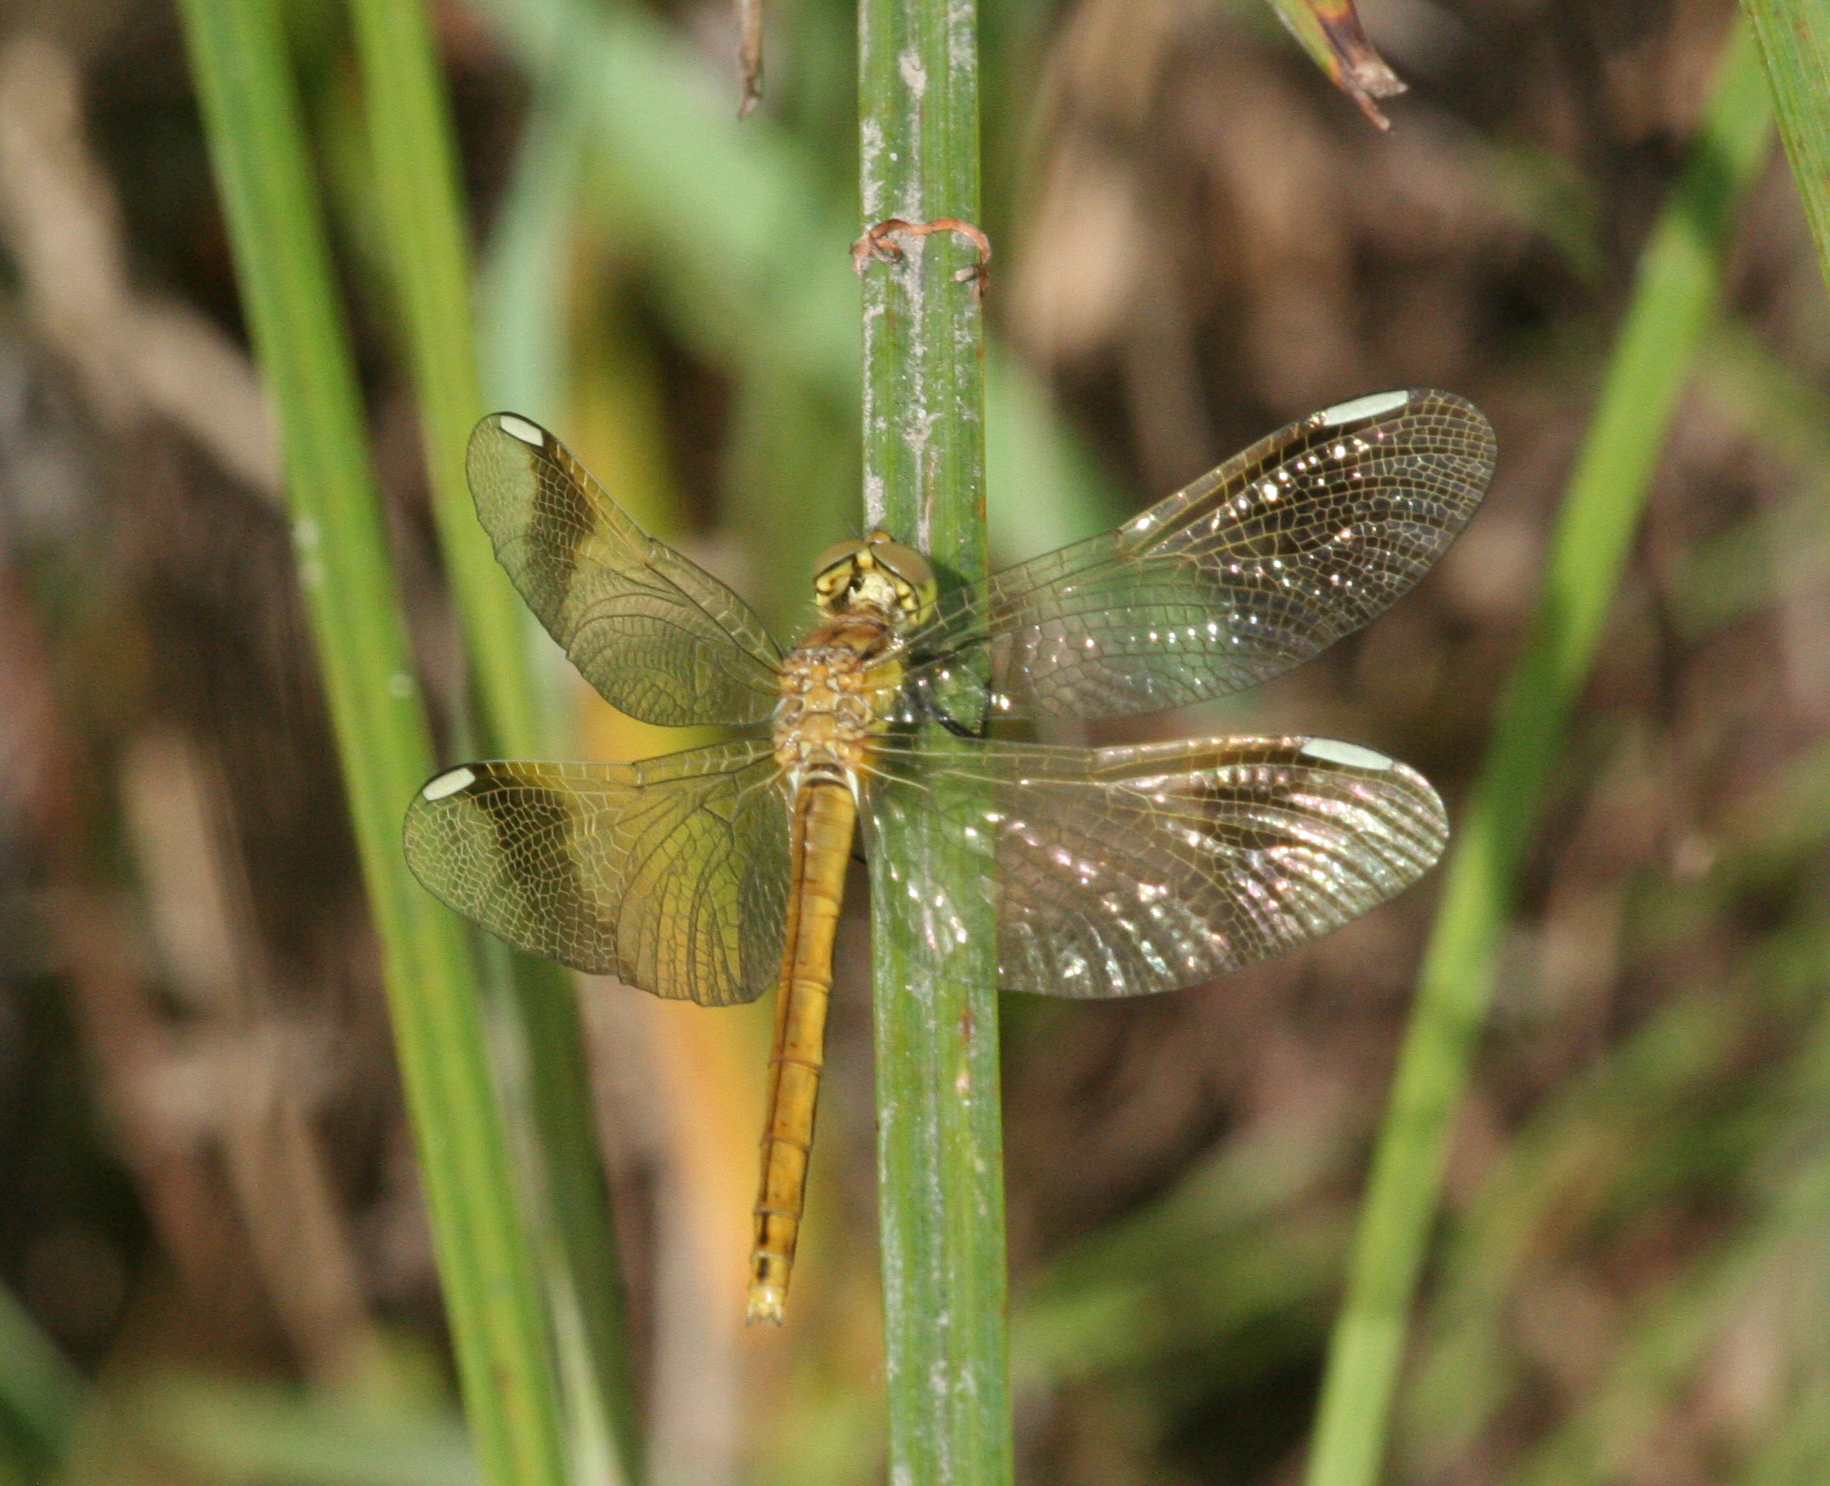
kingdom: Animalia
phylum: Arthropoda
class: Insecta
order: Odonata
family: Libellulidae
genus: Sympetrum
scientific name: Sympetrum pedemontanum
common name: Banded darter
